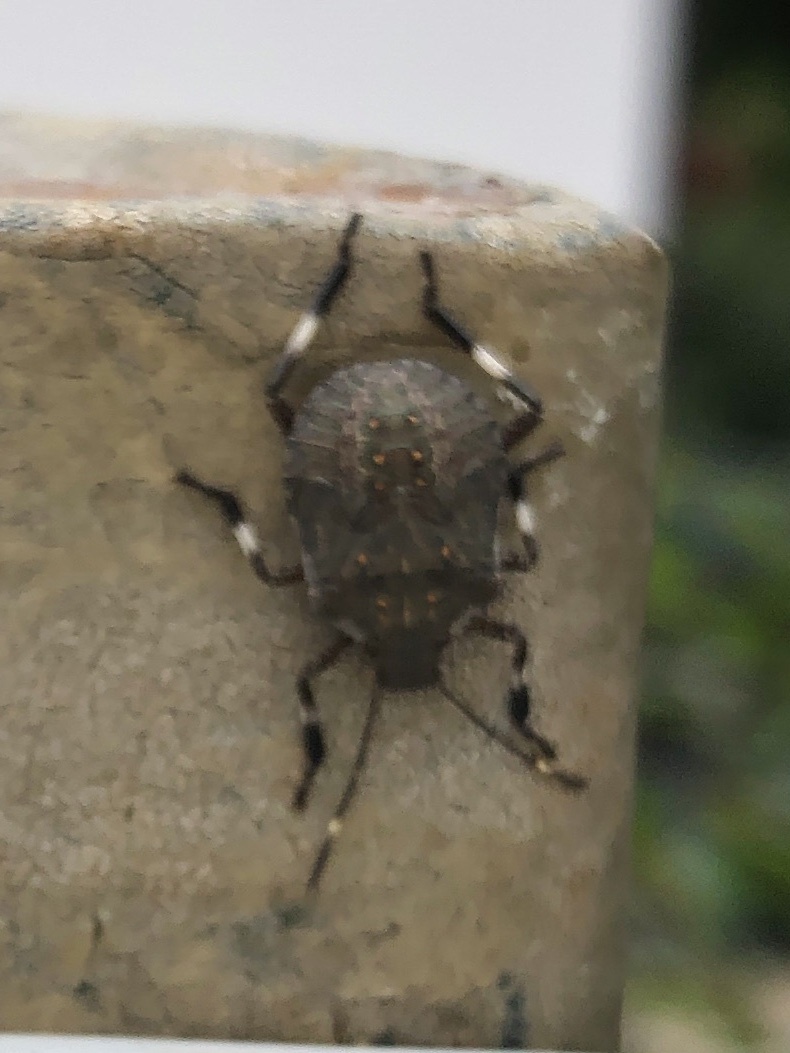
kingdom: Animalia
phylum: Arthropoda
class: Insecta
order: Hemiptera
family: Pentatomidae
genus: Halyomorpha
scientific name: Halyomorpha halys
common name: Brown marmorated stink bug
